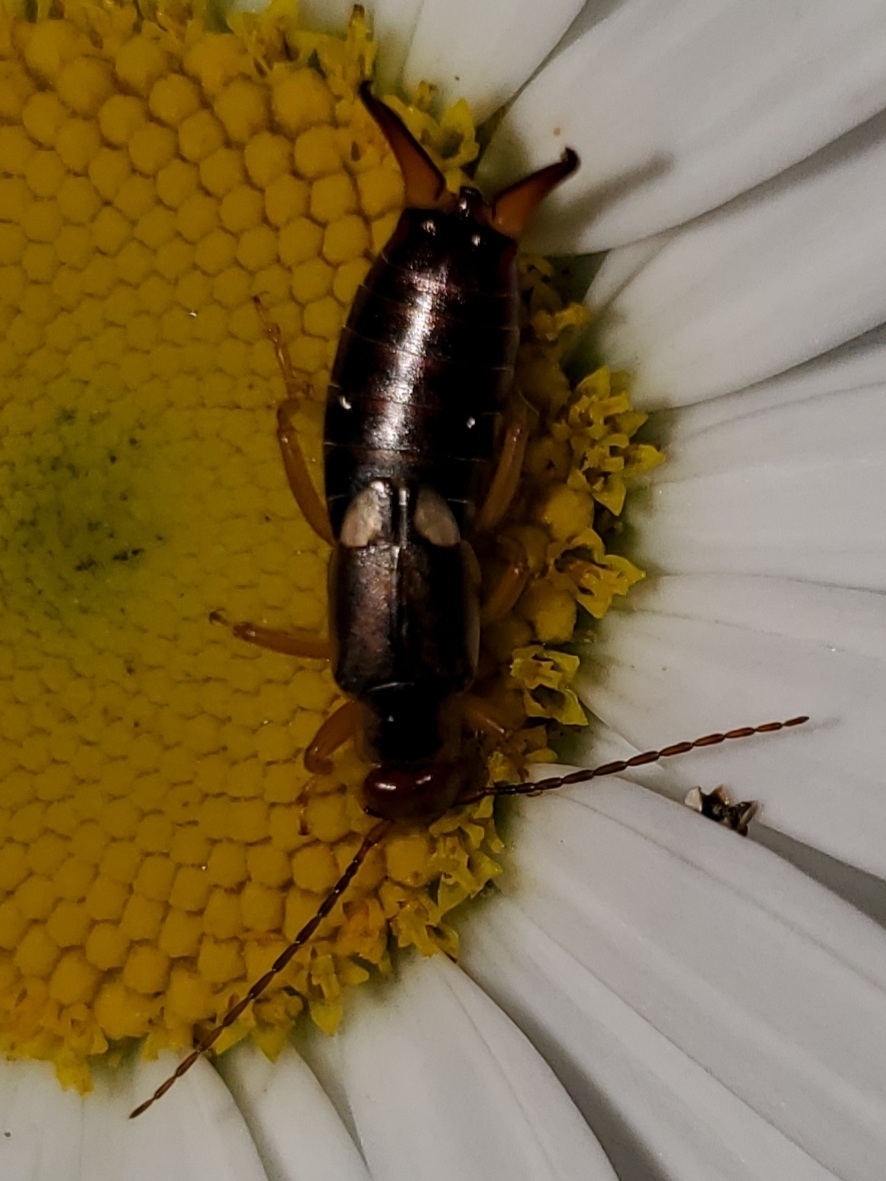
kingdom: Animalia
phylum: Arthropoda
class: Insecta
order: Dermaptera
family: Forficulidae
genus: Forficula
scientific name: Forficula
